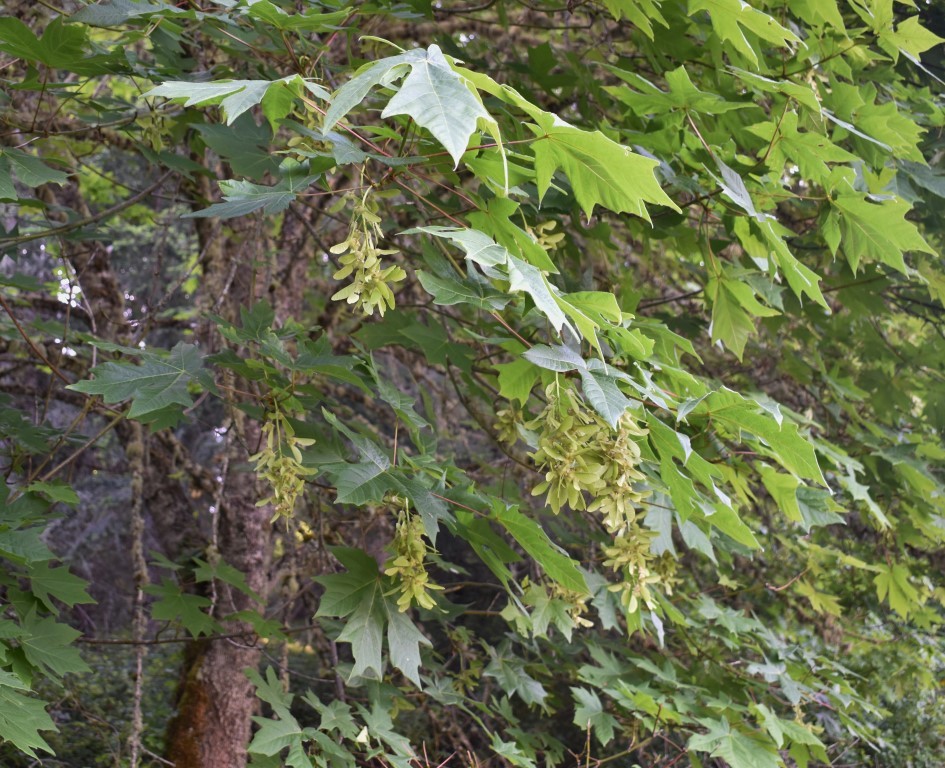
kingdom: Plantae
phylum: Tracheophyta
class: Magnoliopsida
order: Sapindales
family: Sapindaceae
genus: Acer
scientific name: Acer macrophyllum
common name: Oregon maple
